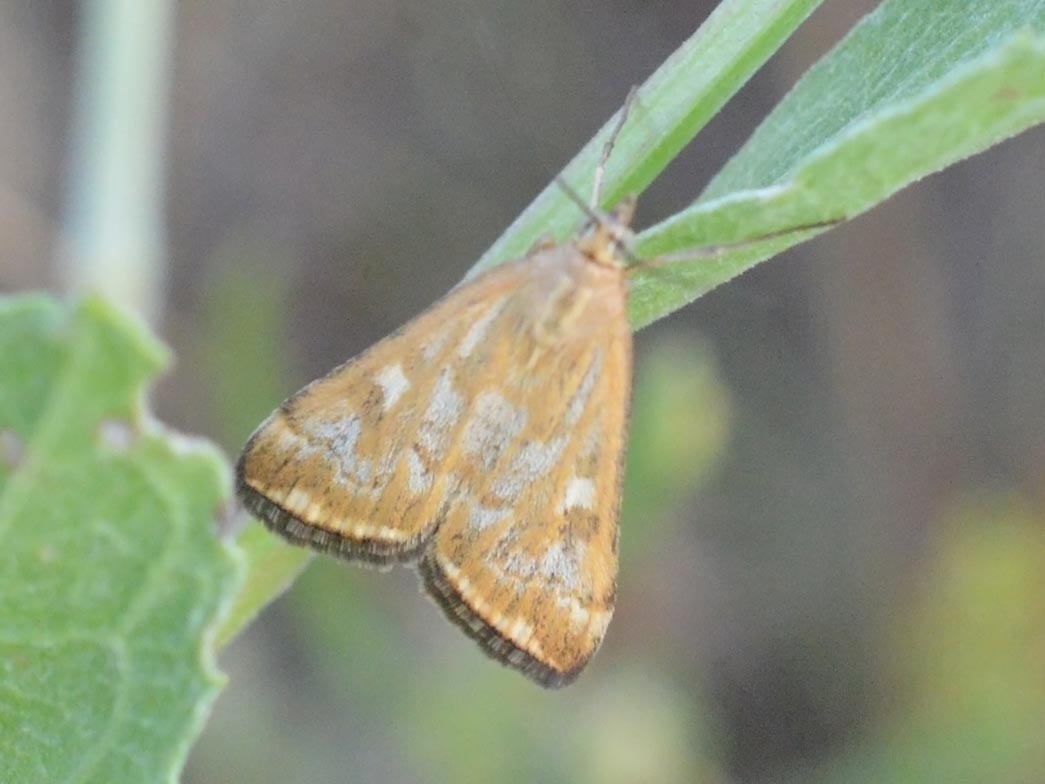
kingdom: Animalia
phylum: Arthropoda
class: Insecta
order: Lepidoptera
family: Crambidae
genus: Loxostege
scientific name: Loxostege sticticalis
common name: Crambid moth
